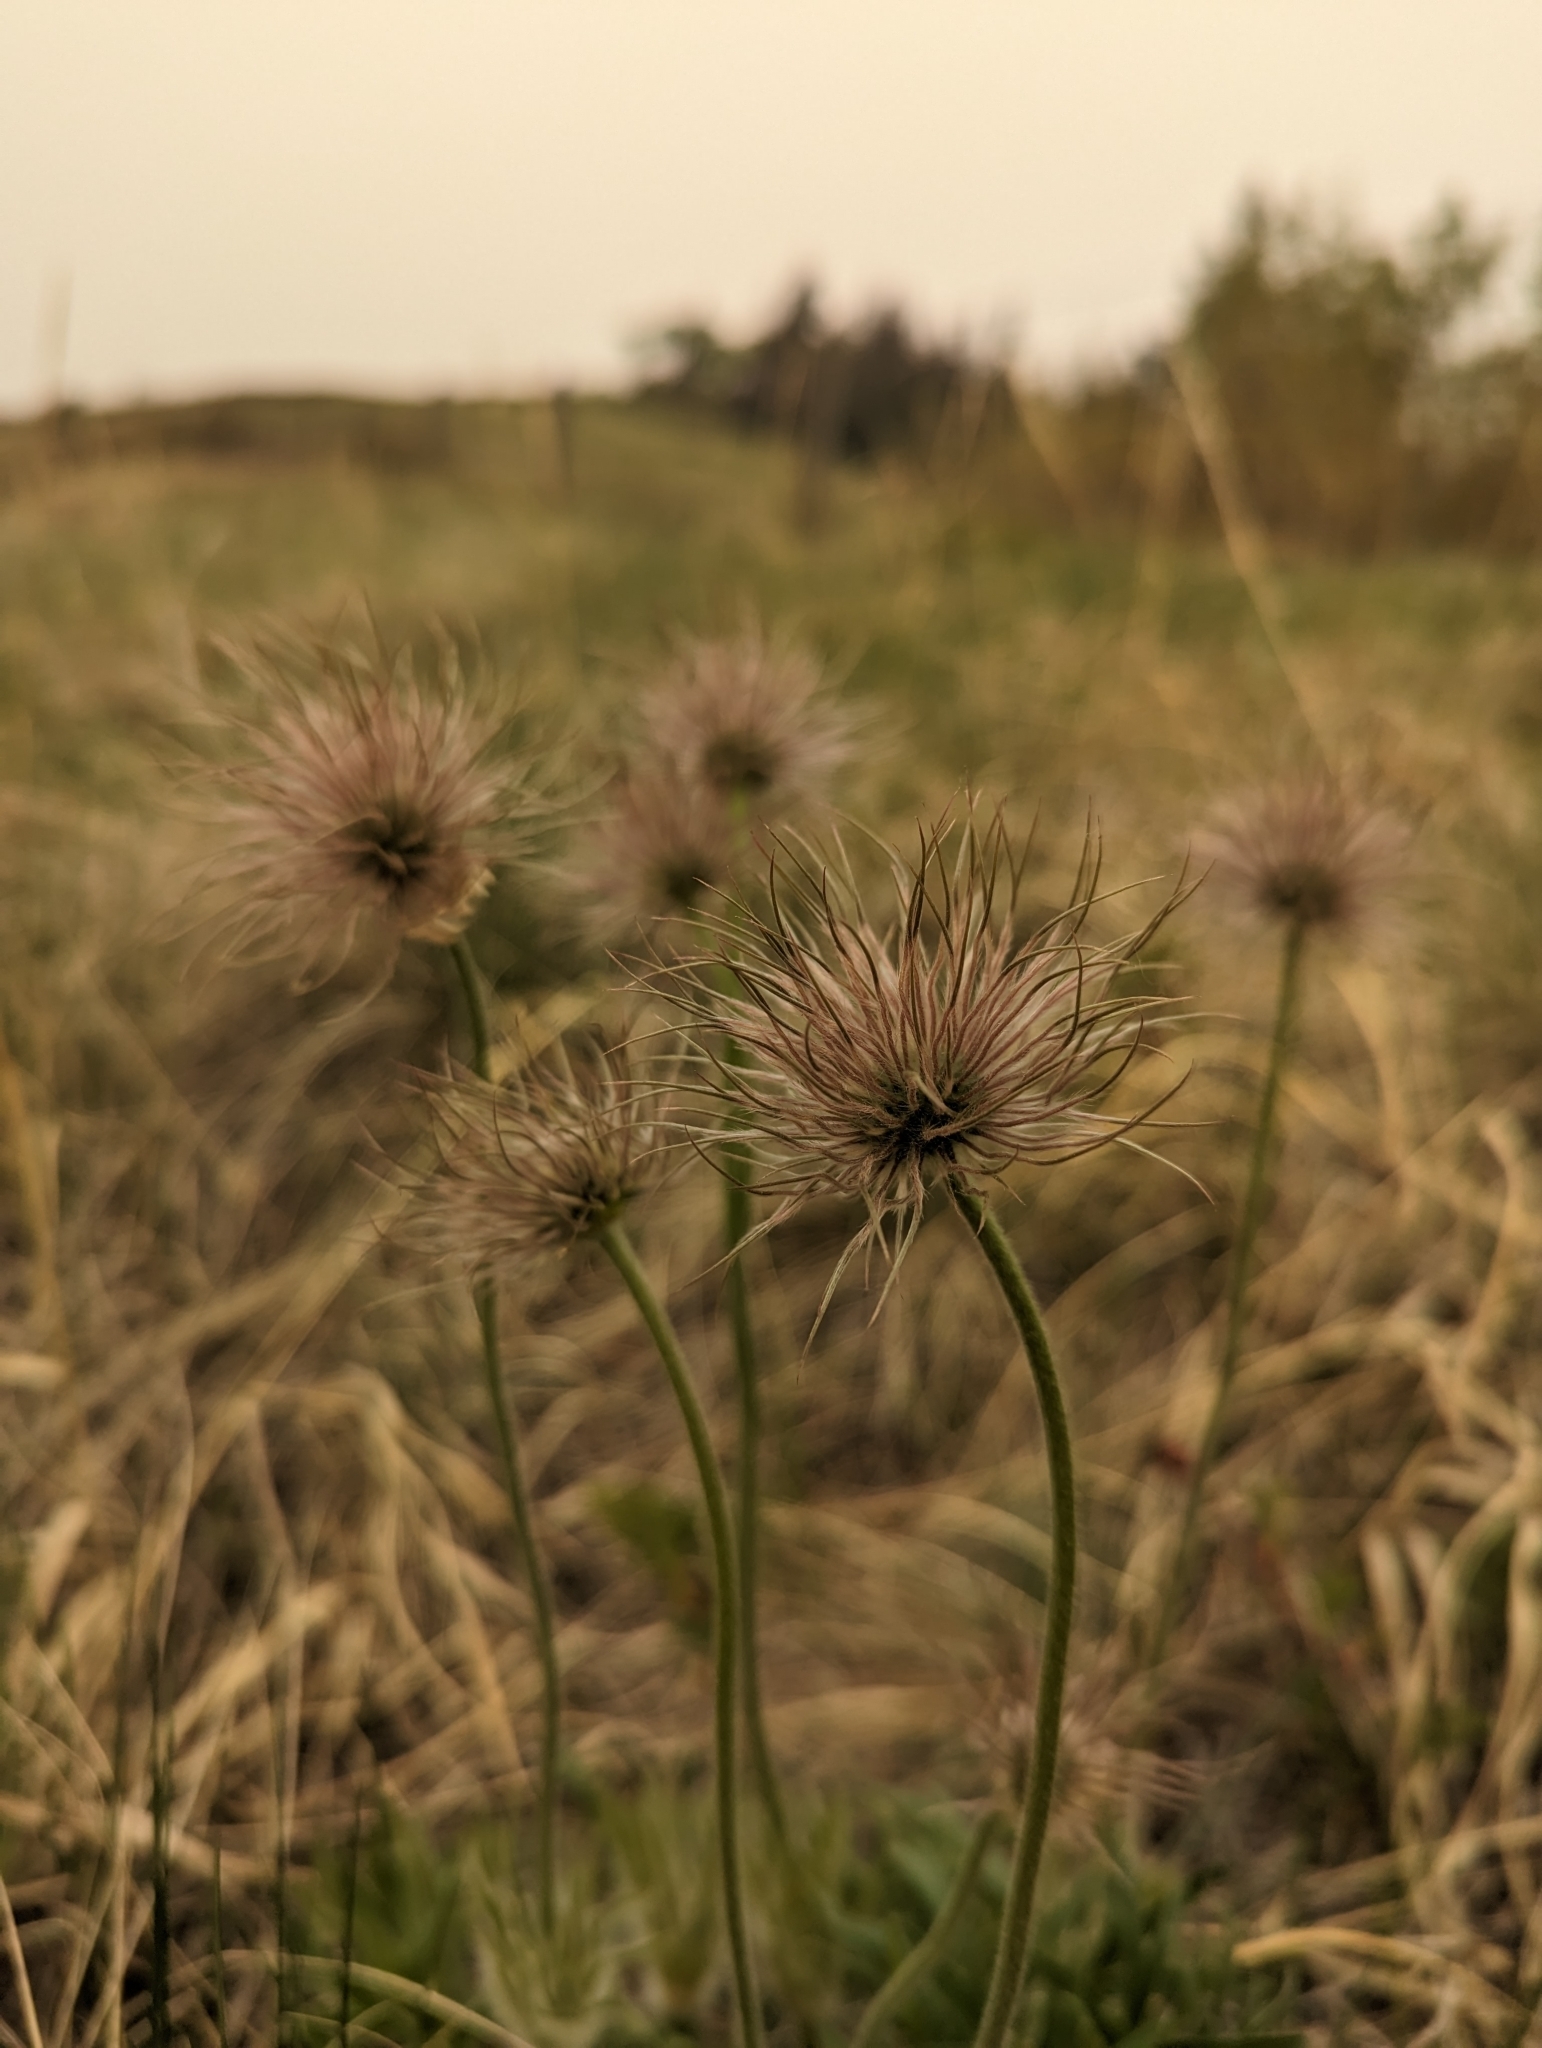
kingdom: Plantae
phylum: Tracheophyta
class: Magnoliopsida
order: Ranunculales
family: Ranunculaceae
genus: Pulsatilla
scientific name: Pulsatilla nuttalliana
